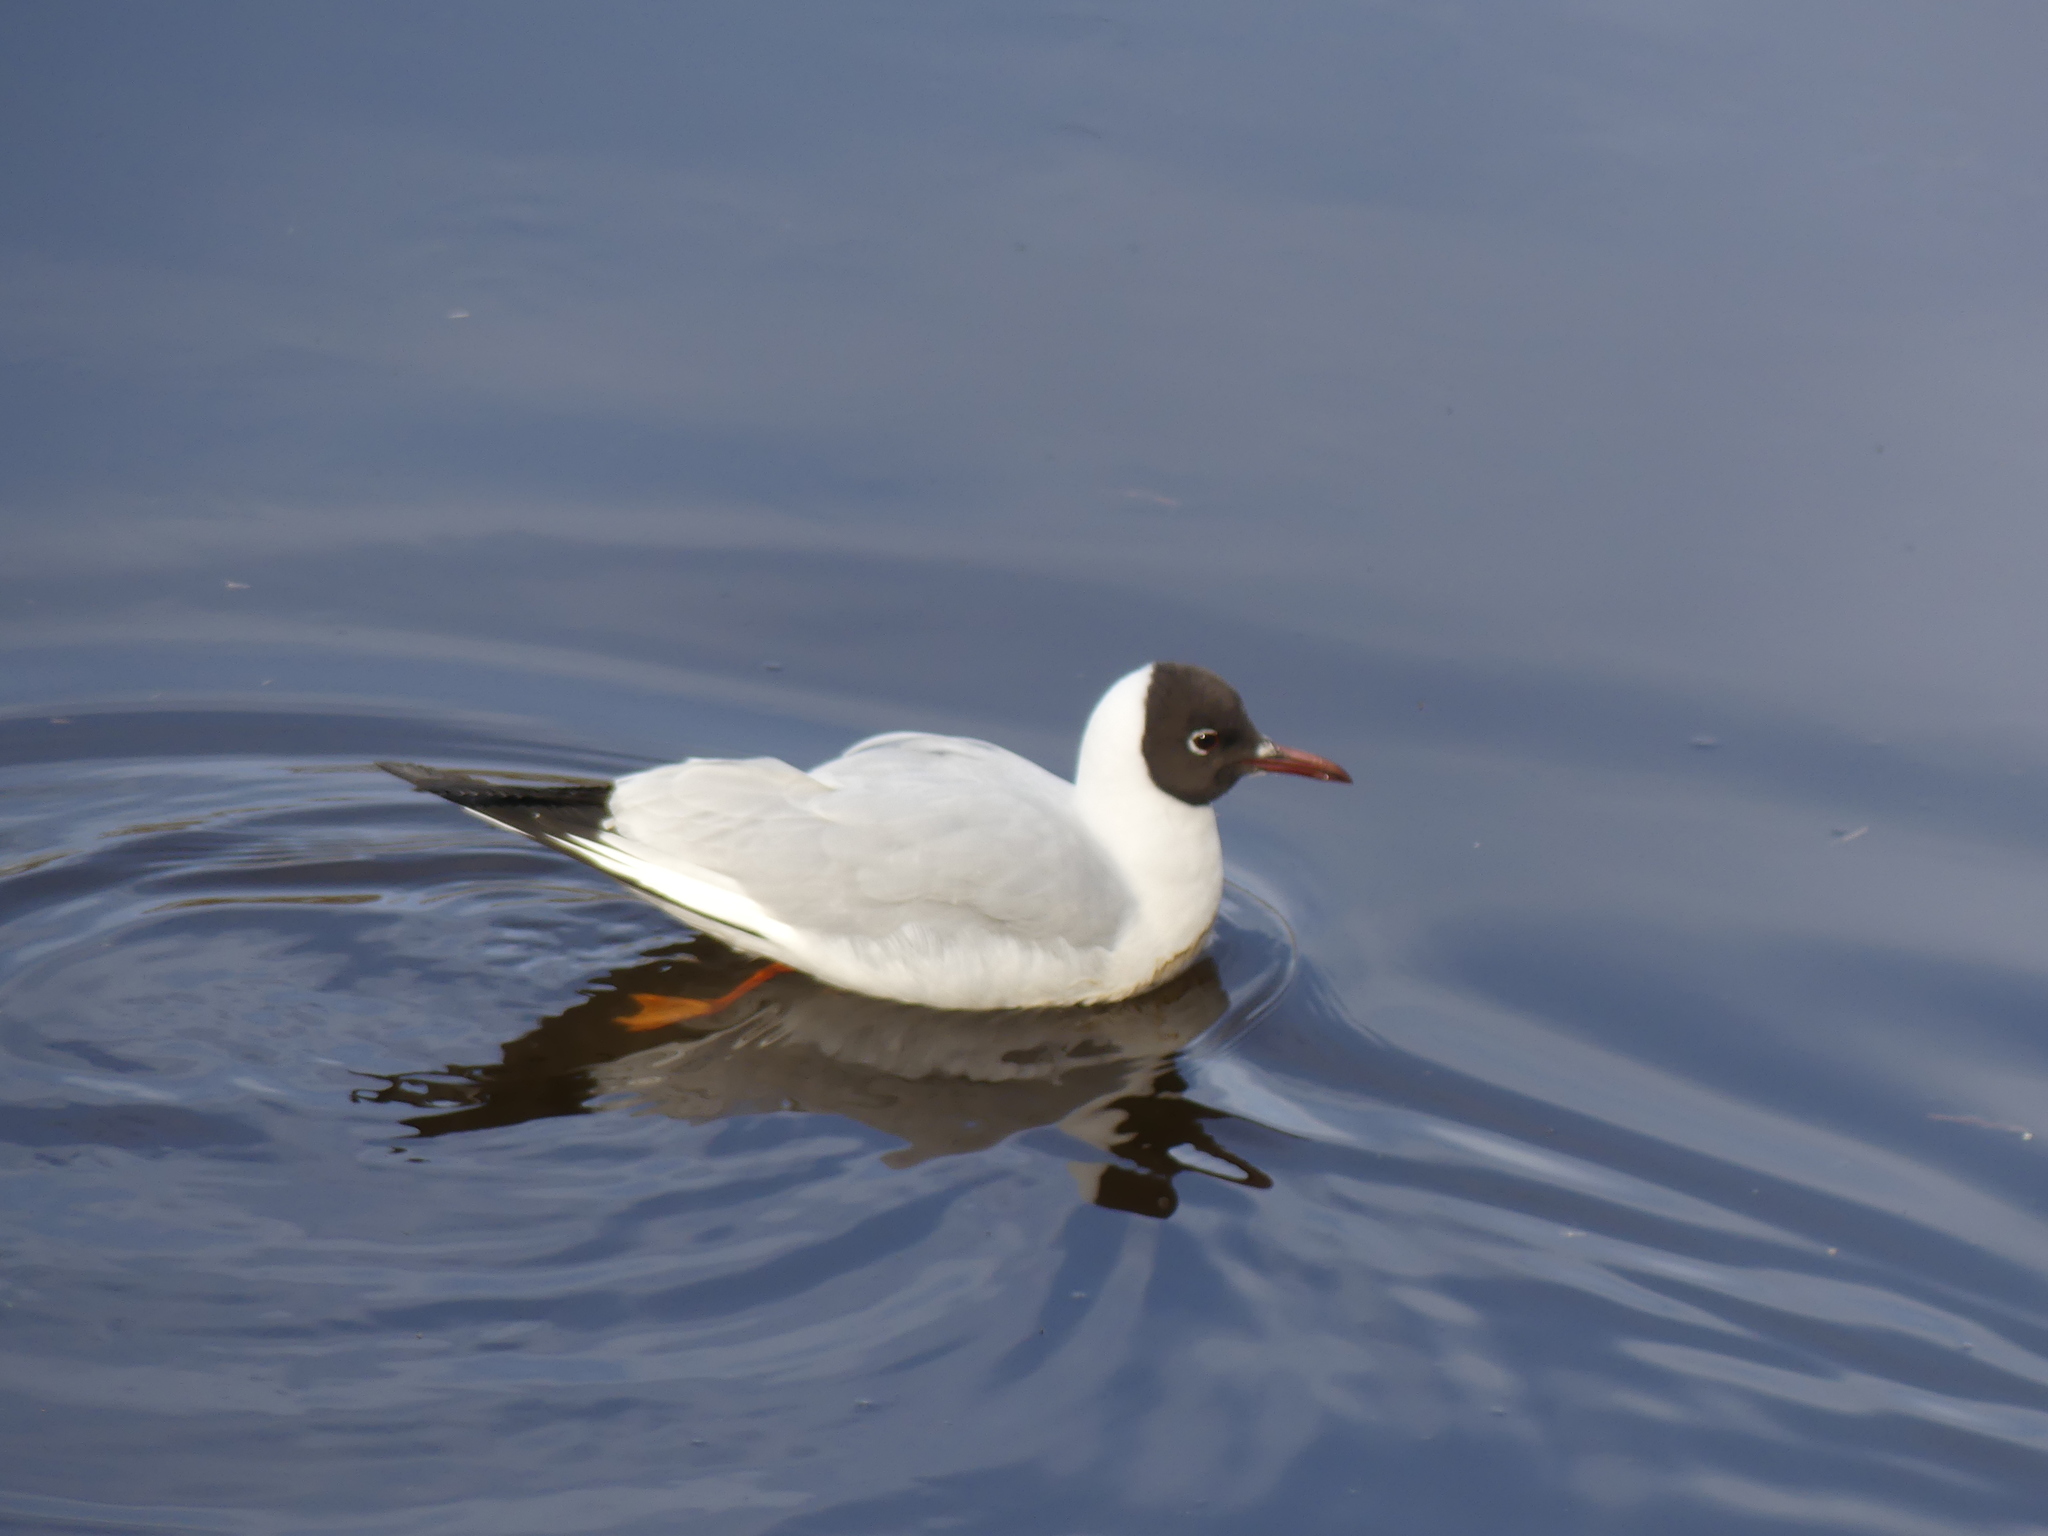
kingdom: Animalia
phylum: Chordata
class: Aves
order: Charadriiformes
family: Laridae
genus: Chroicocephalus
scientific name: Chroicocephalus ridibundus
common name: Black-headed gull
